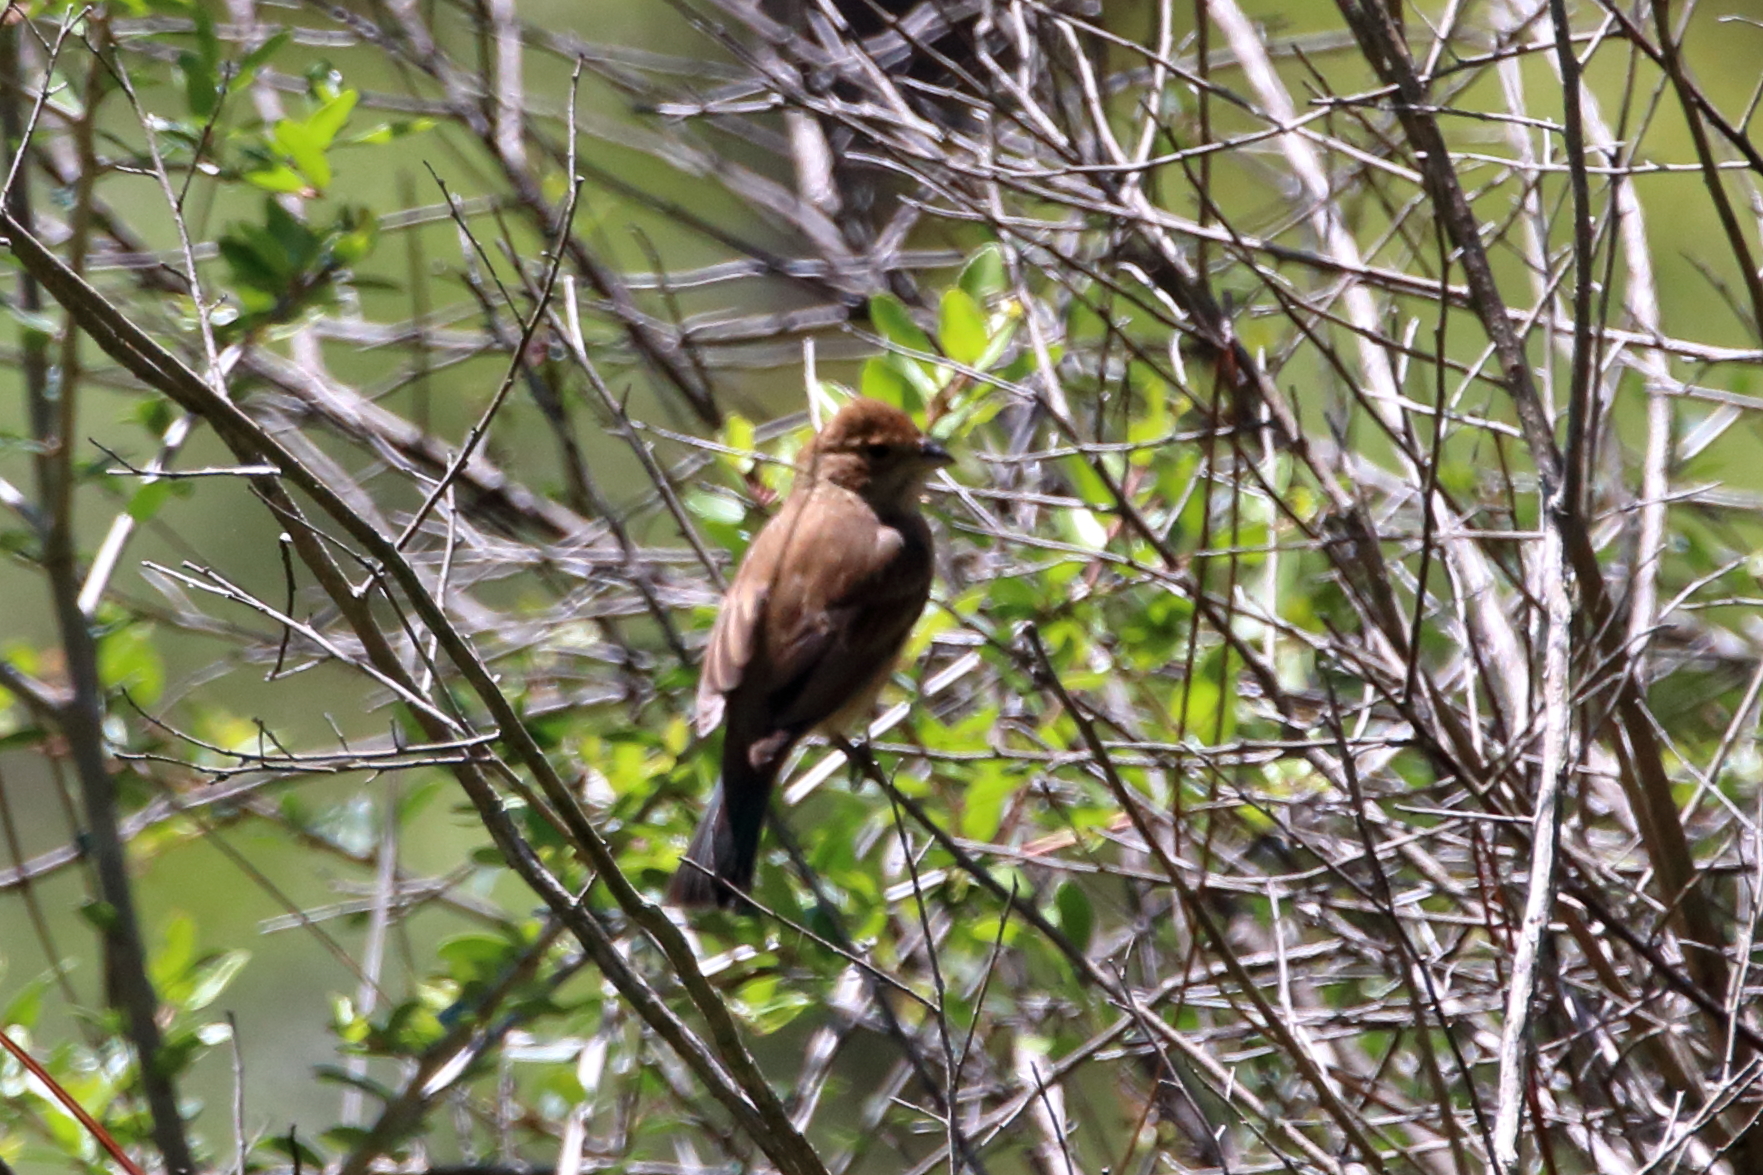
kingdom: Animalia
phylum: Chordata
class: Aves
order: Passeriformes
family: Cardinalidae
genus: Passerina
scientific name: Passerina cyanea
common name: Indigo bunting
